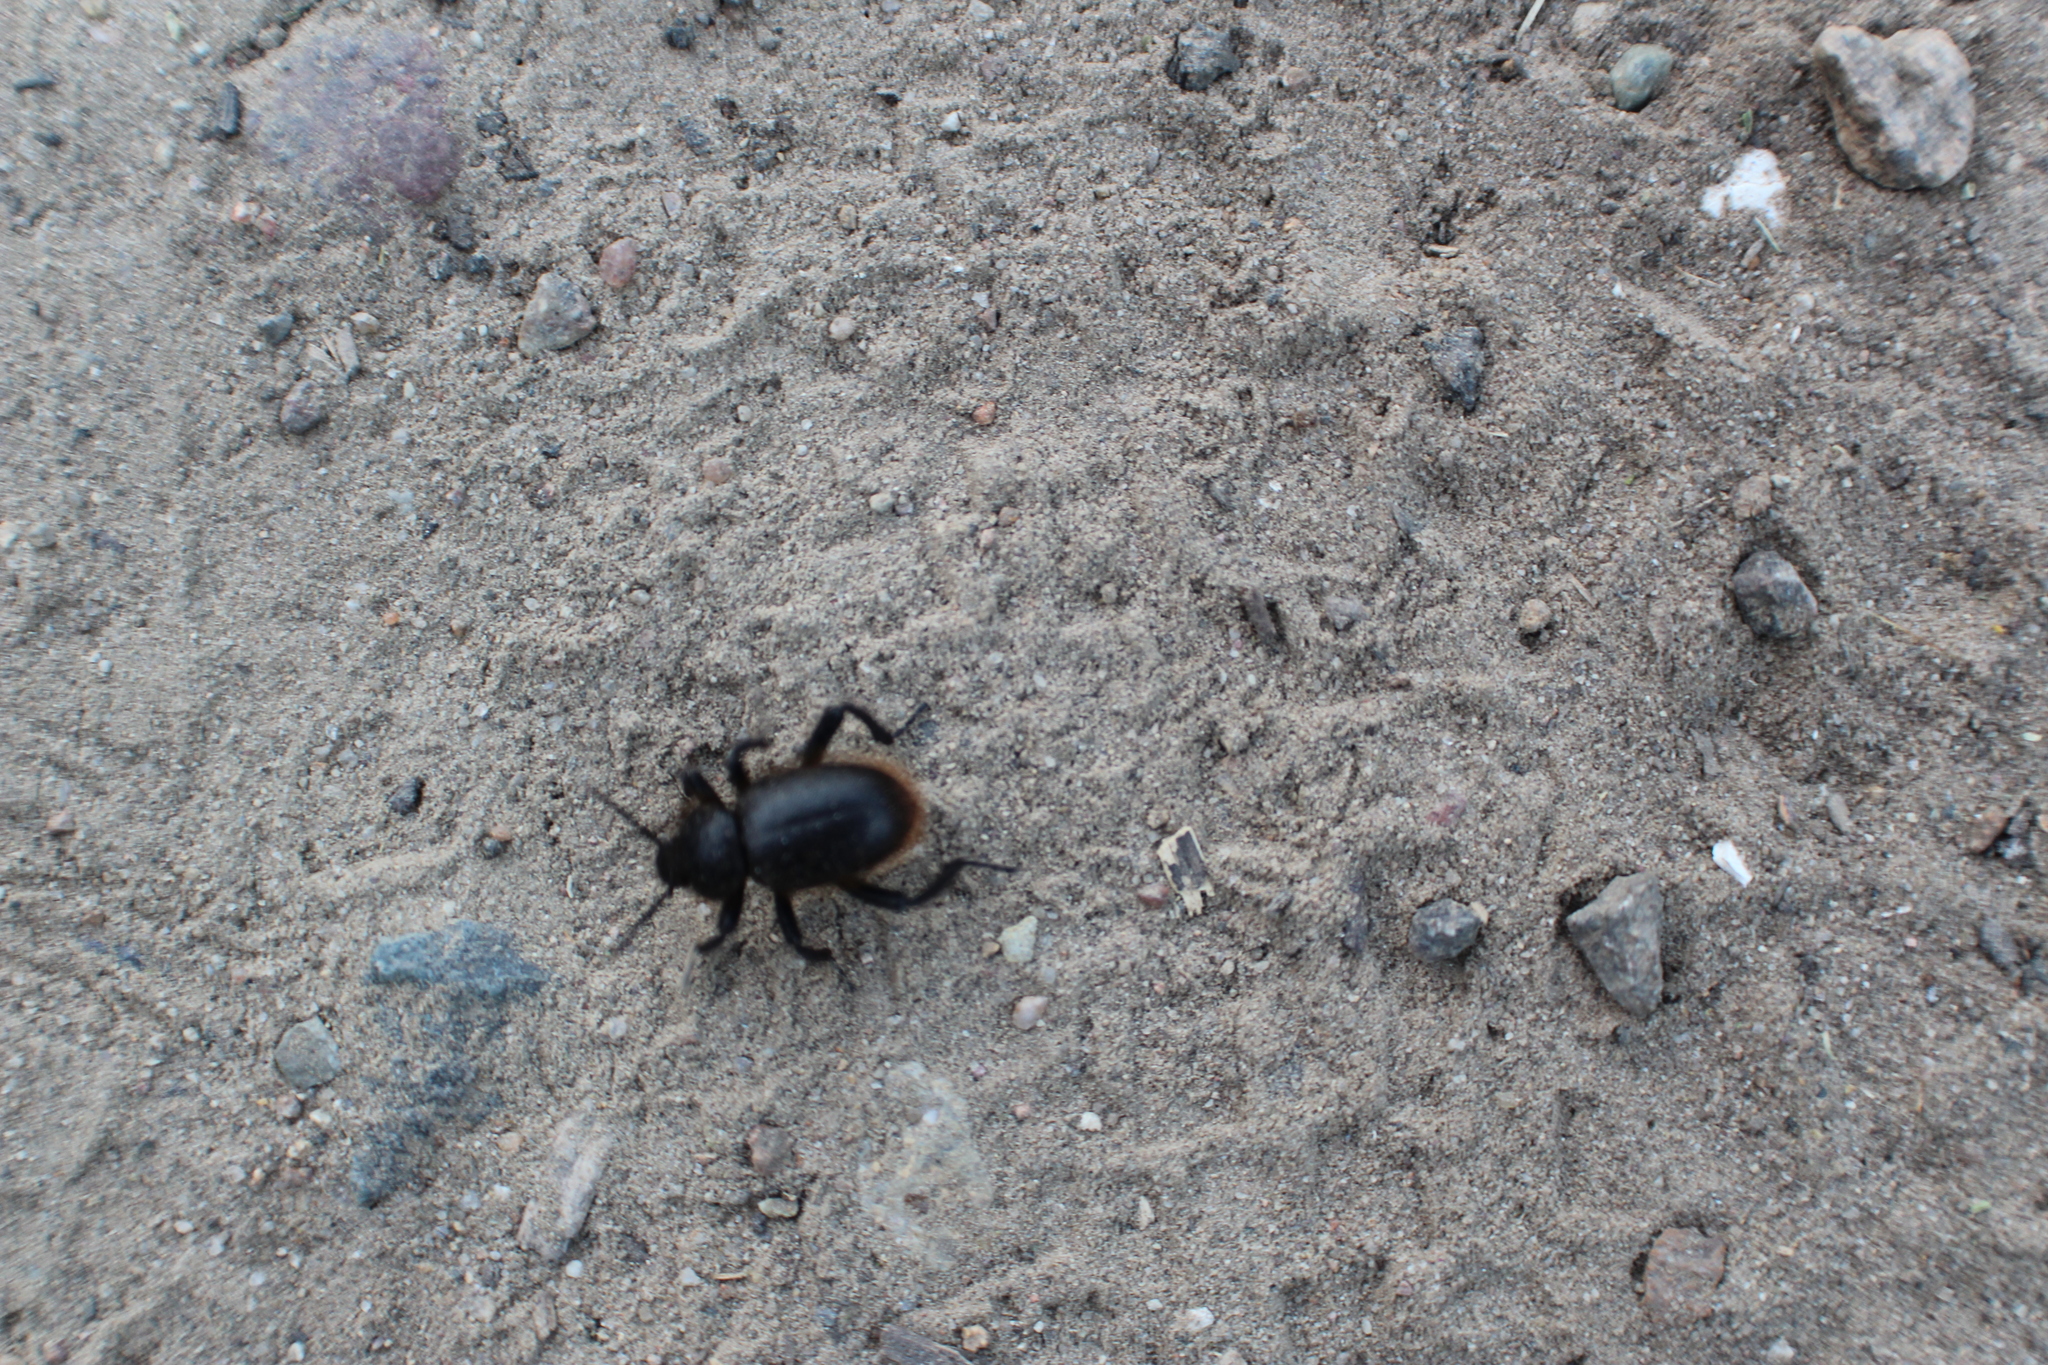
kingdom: Animalia
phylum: Arthropoda
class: Insecta
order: Coleoptera
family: Tenebrionidae
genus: Eleodes
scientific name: Eleodes osculans
